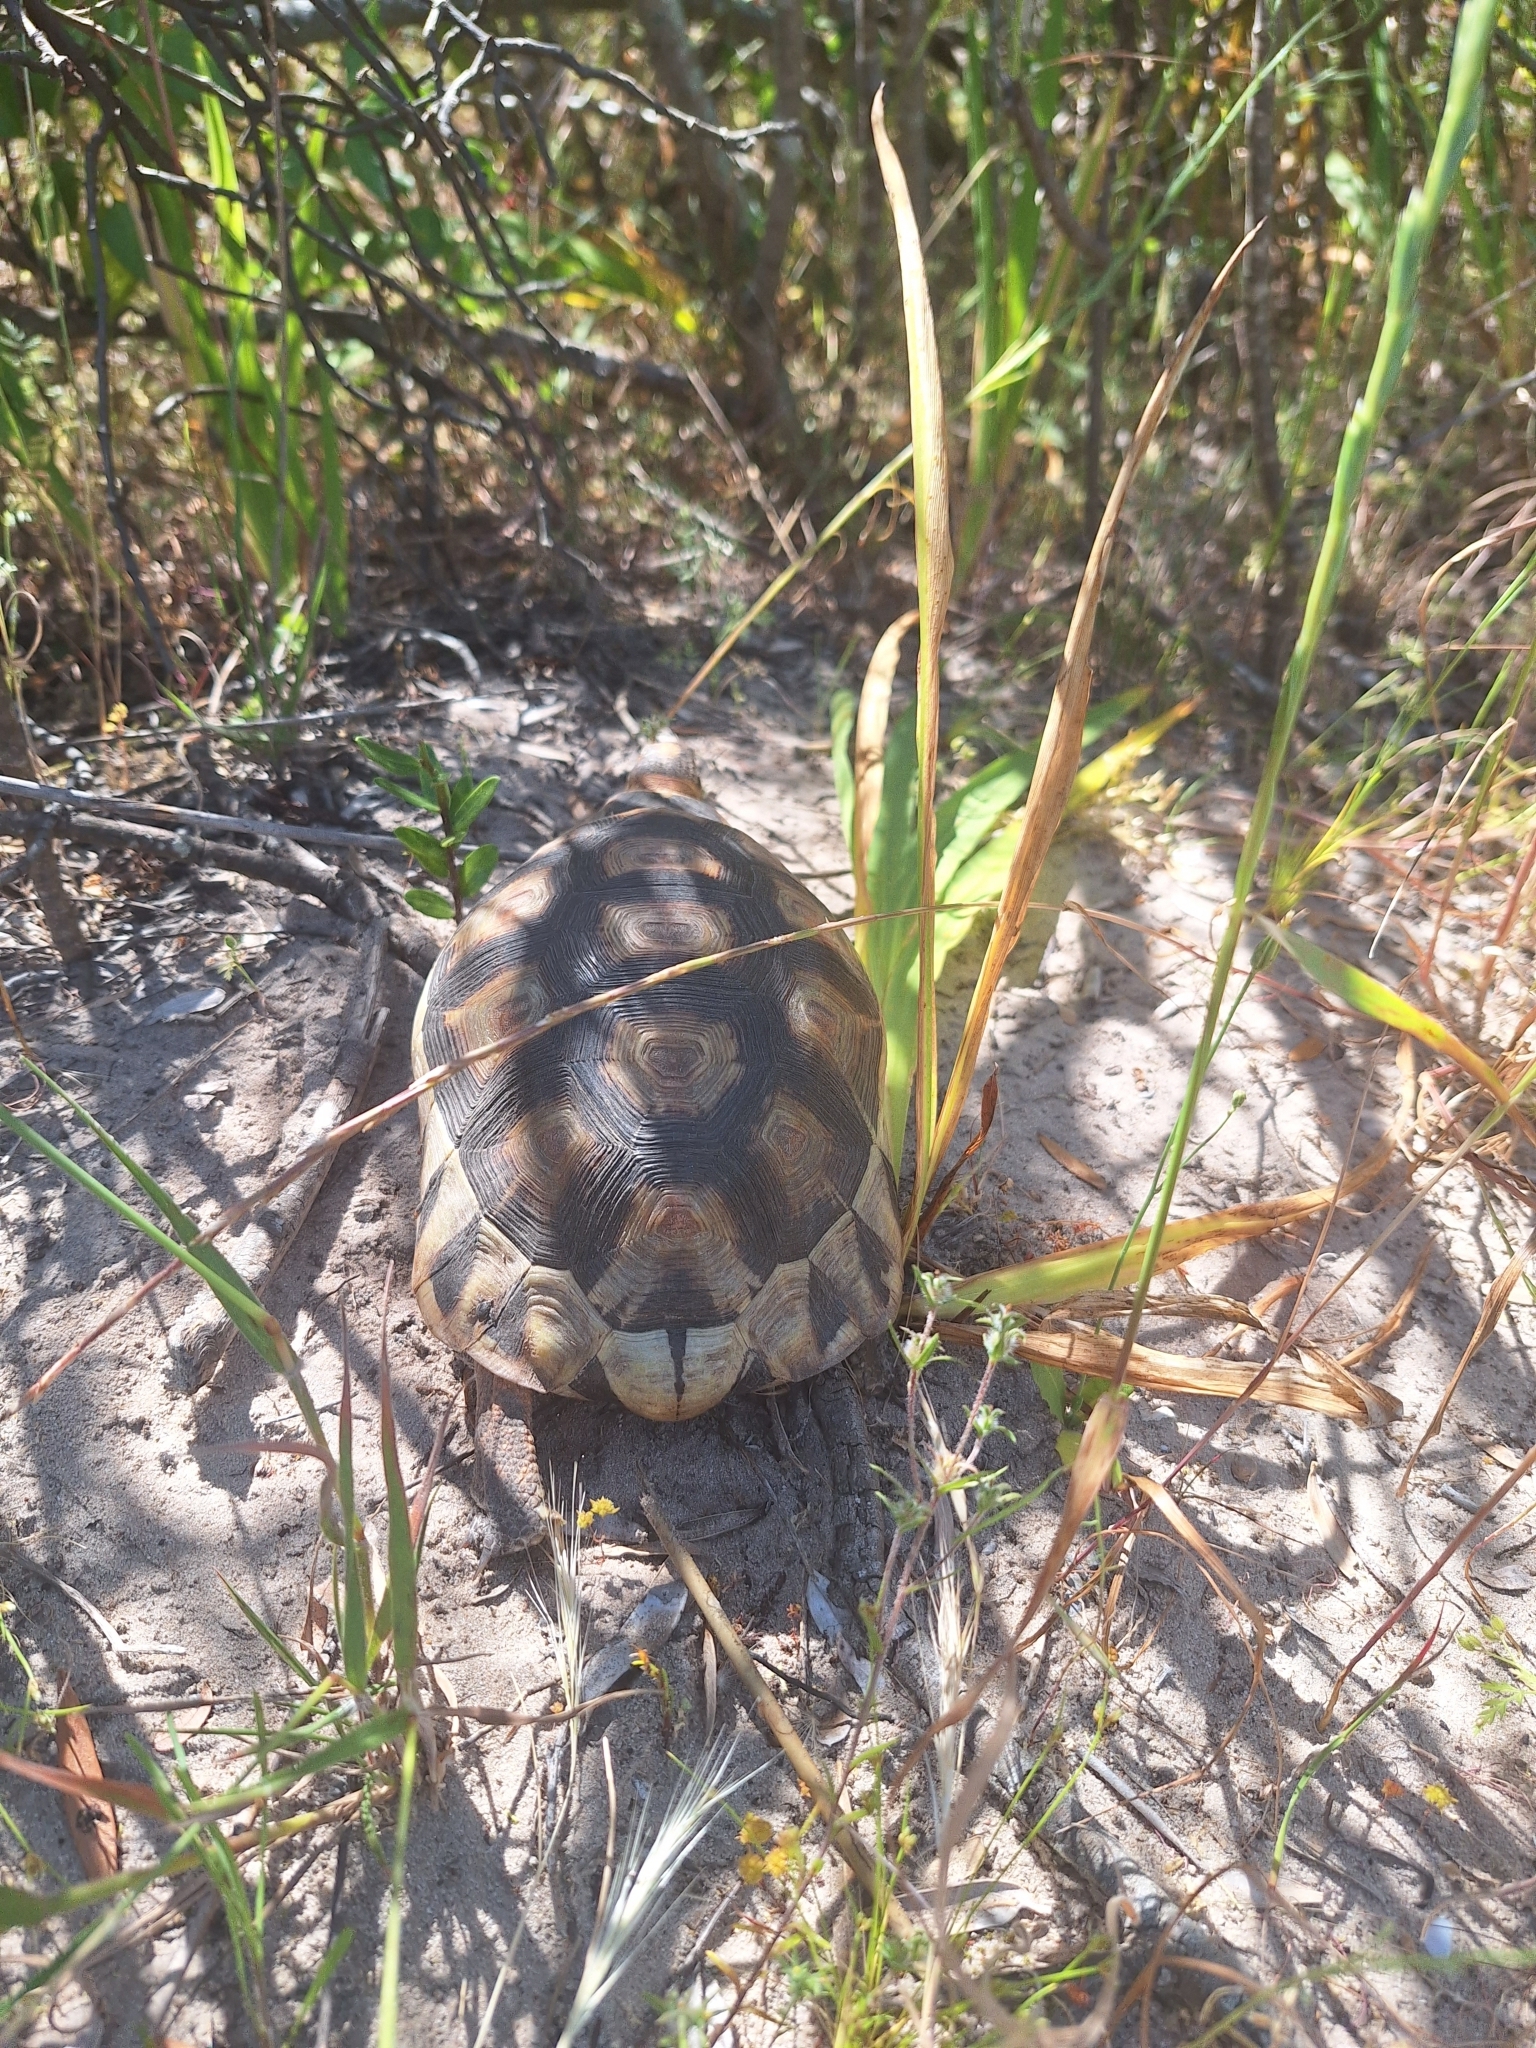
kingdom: Animalia
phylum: Chordata
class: Testudines
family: Testudinidae
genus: Chersina
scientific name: Chersina angulata
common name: South african bowsprit tortoise
